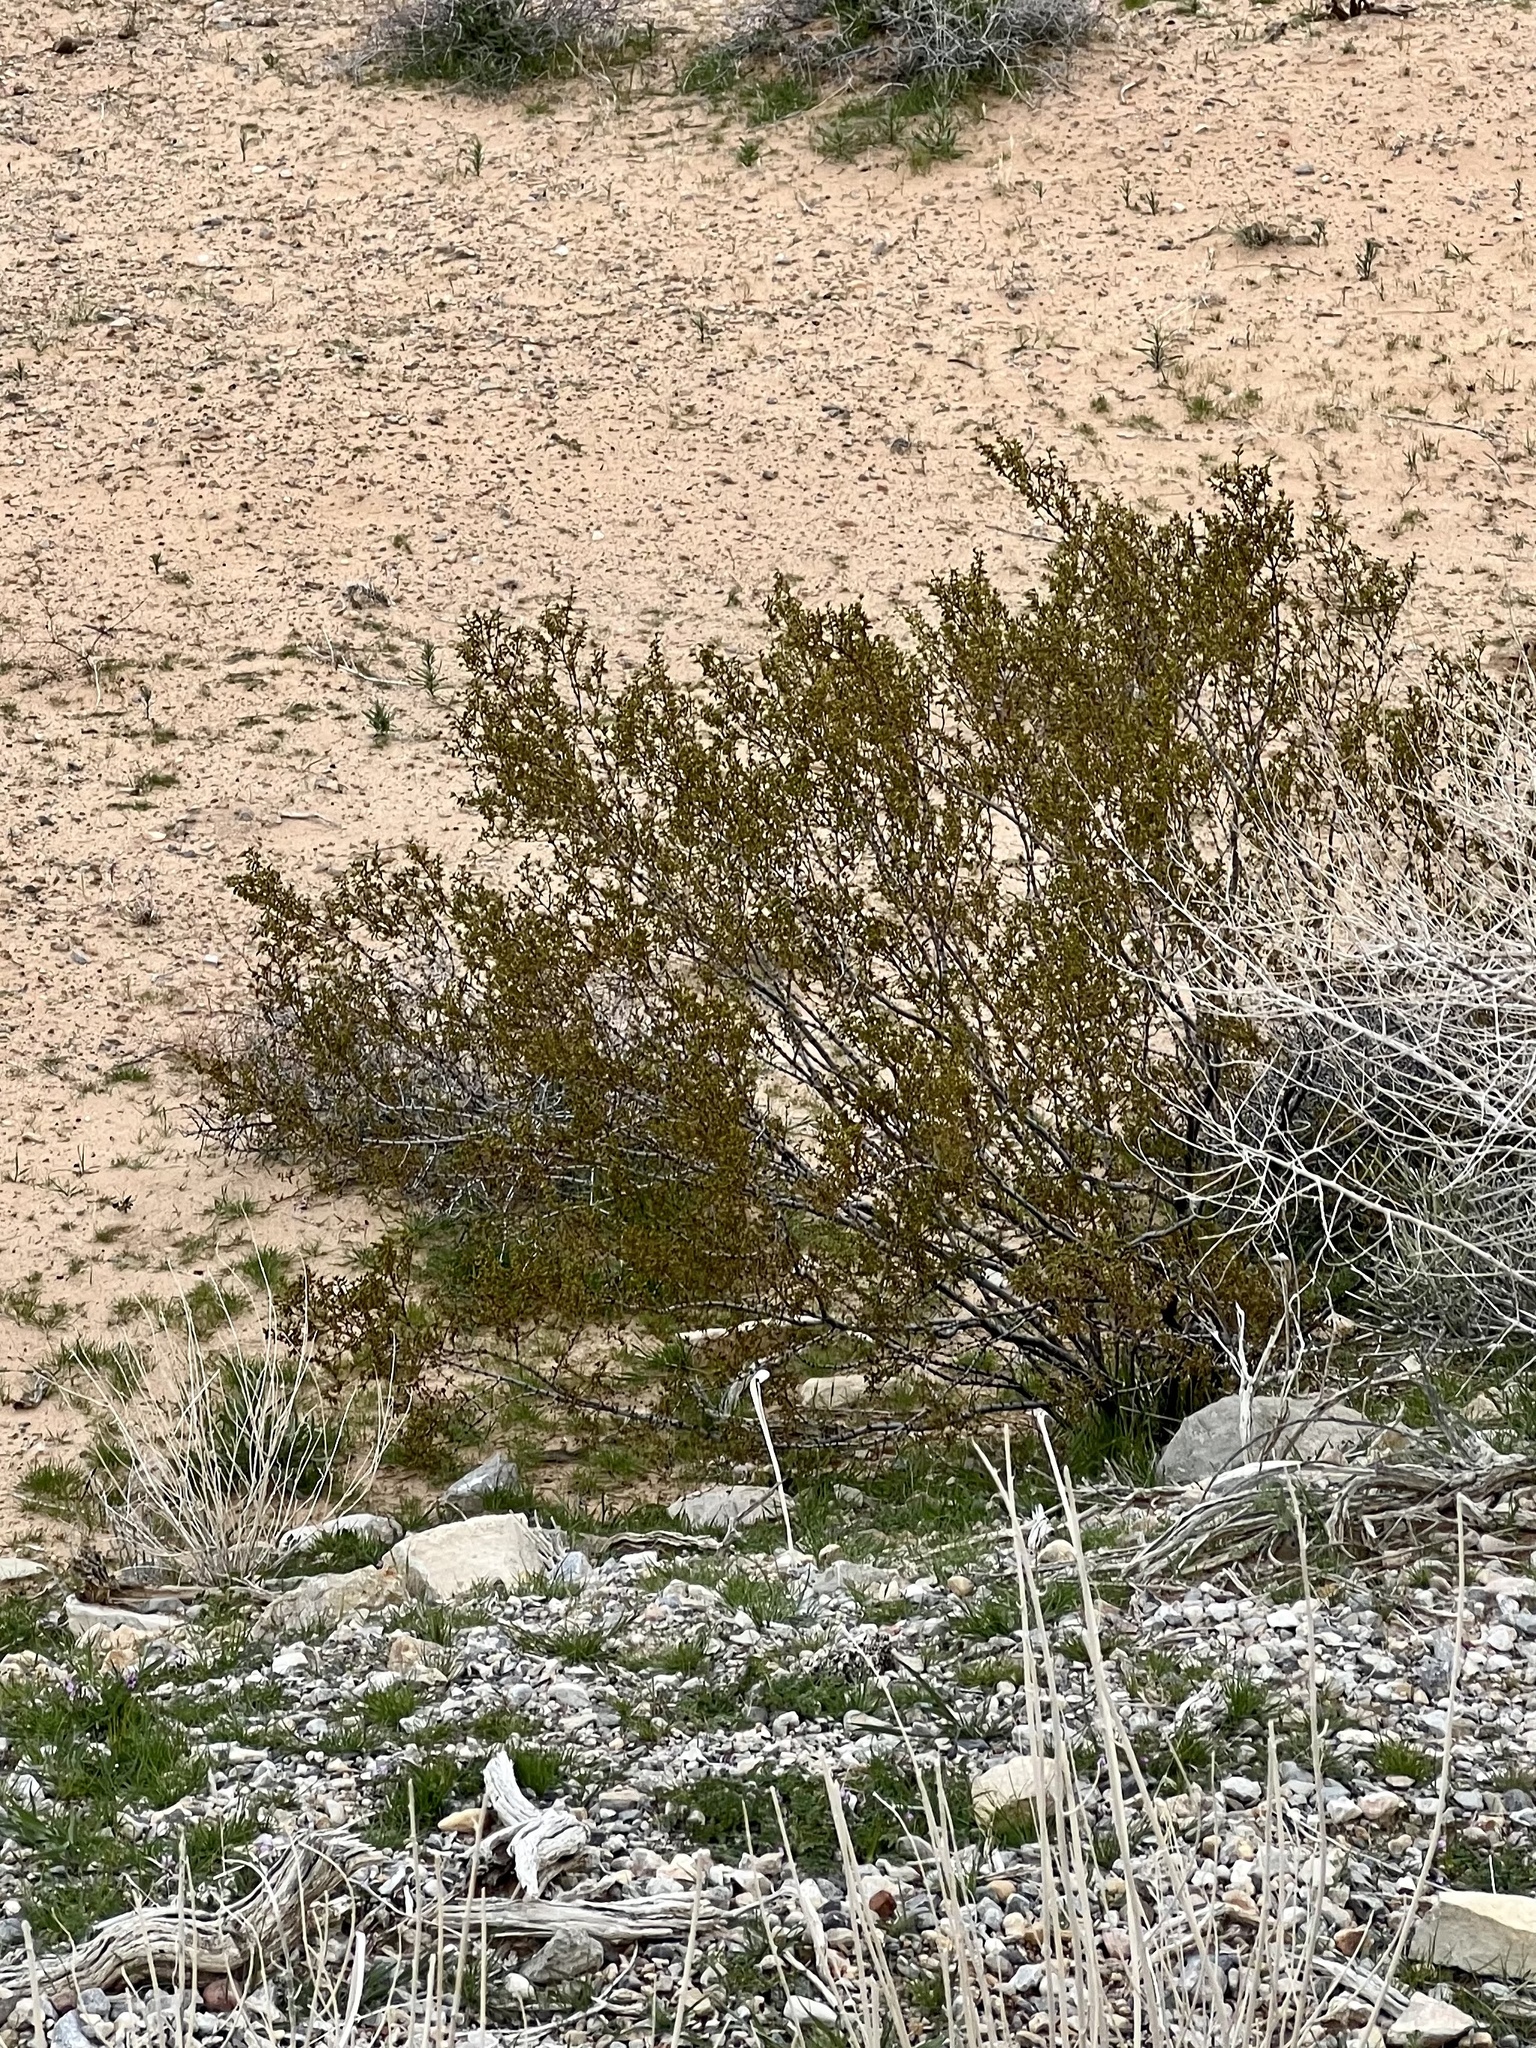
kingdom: Plantae
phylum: Tracheophyta
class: Magnoliopsida
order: Zygophyllales
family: Zygophyllaceae
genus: Larrea
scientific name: Larrea tridentata
